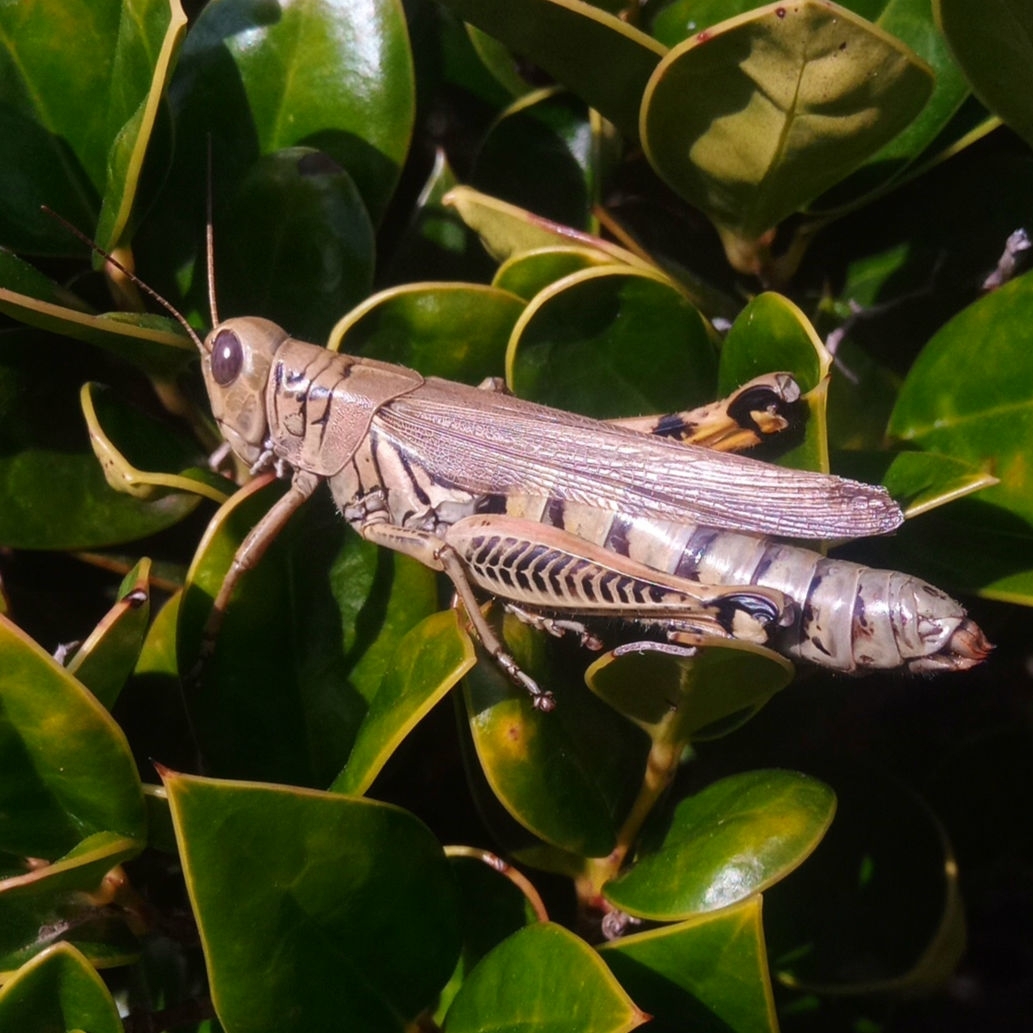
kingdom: Animalia
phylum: Arthropoda
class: Insecta
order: Orthoptera
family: Acrididae
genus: Melanoplus
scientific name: Melanoplus differentialis
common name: Differential grasshopper
